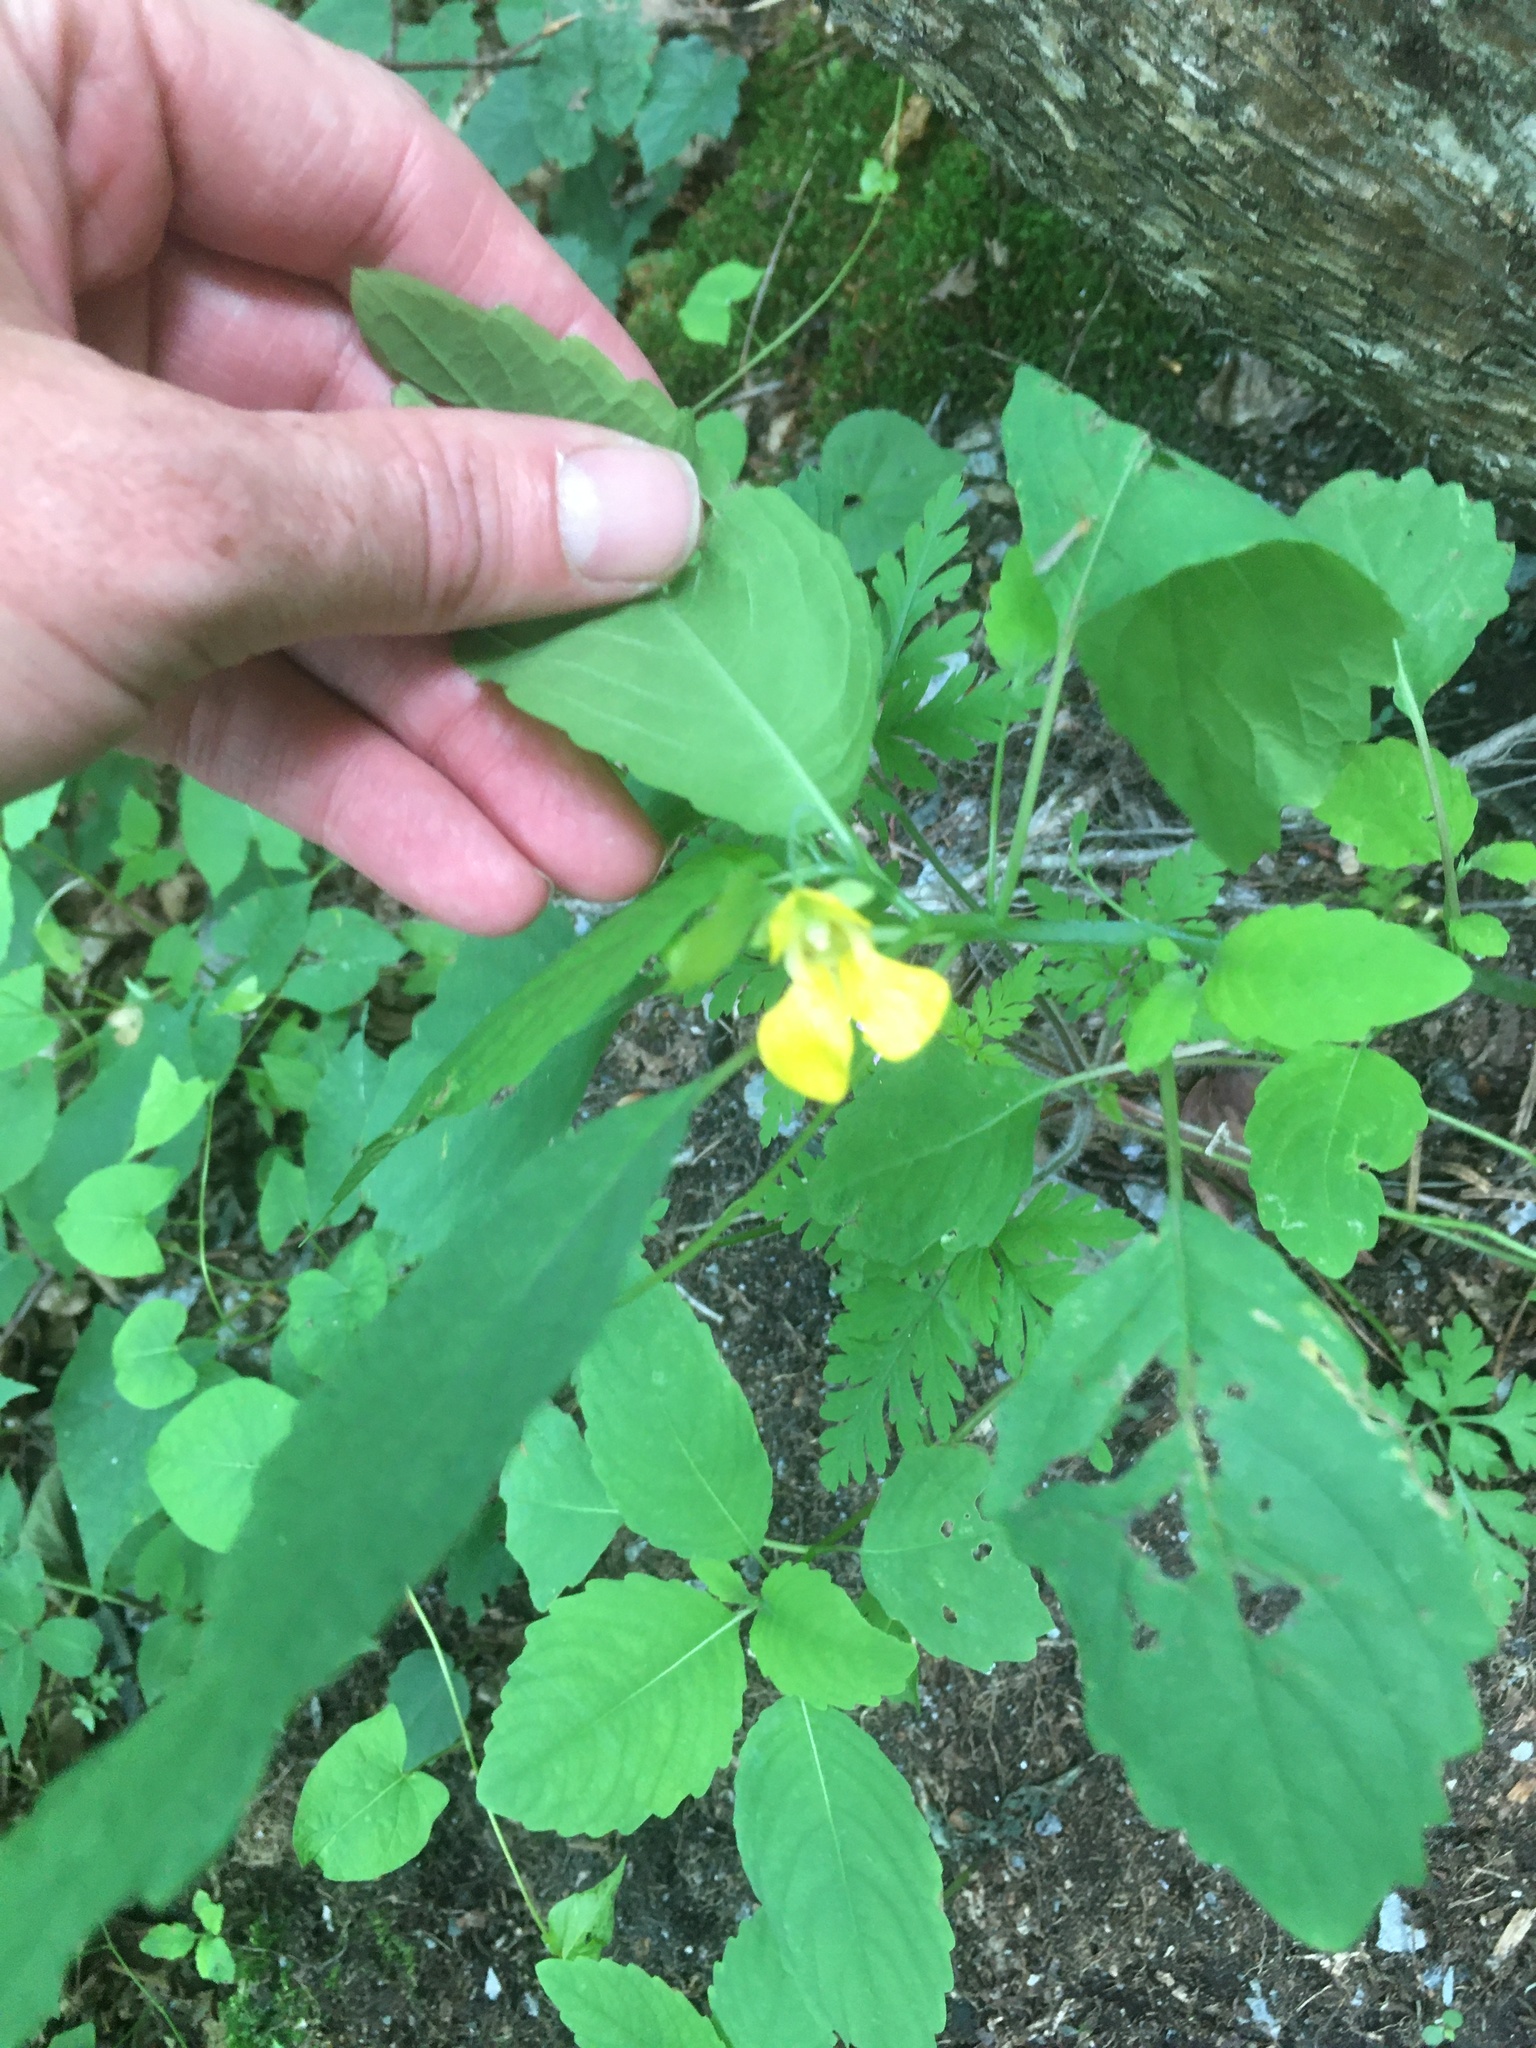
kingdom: Plantae
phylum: Tracheophyta
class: Magnoliopsida
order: Ericales
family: Balsaminaceae
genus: Impatiens
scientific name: Impatiens pallida
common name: Pale snapweed
